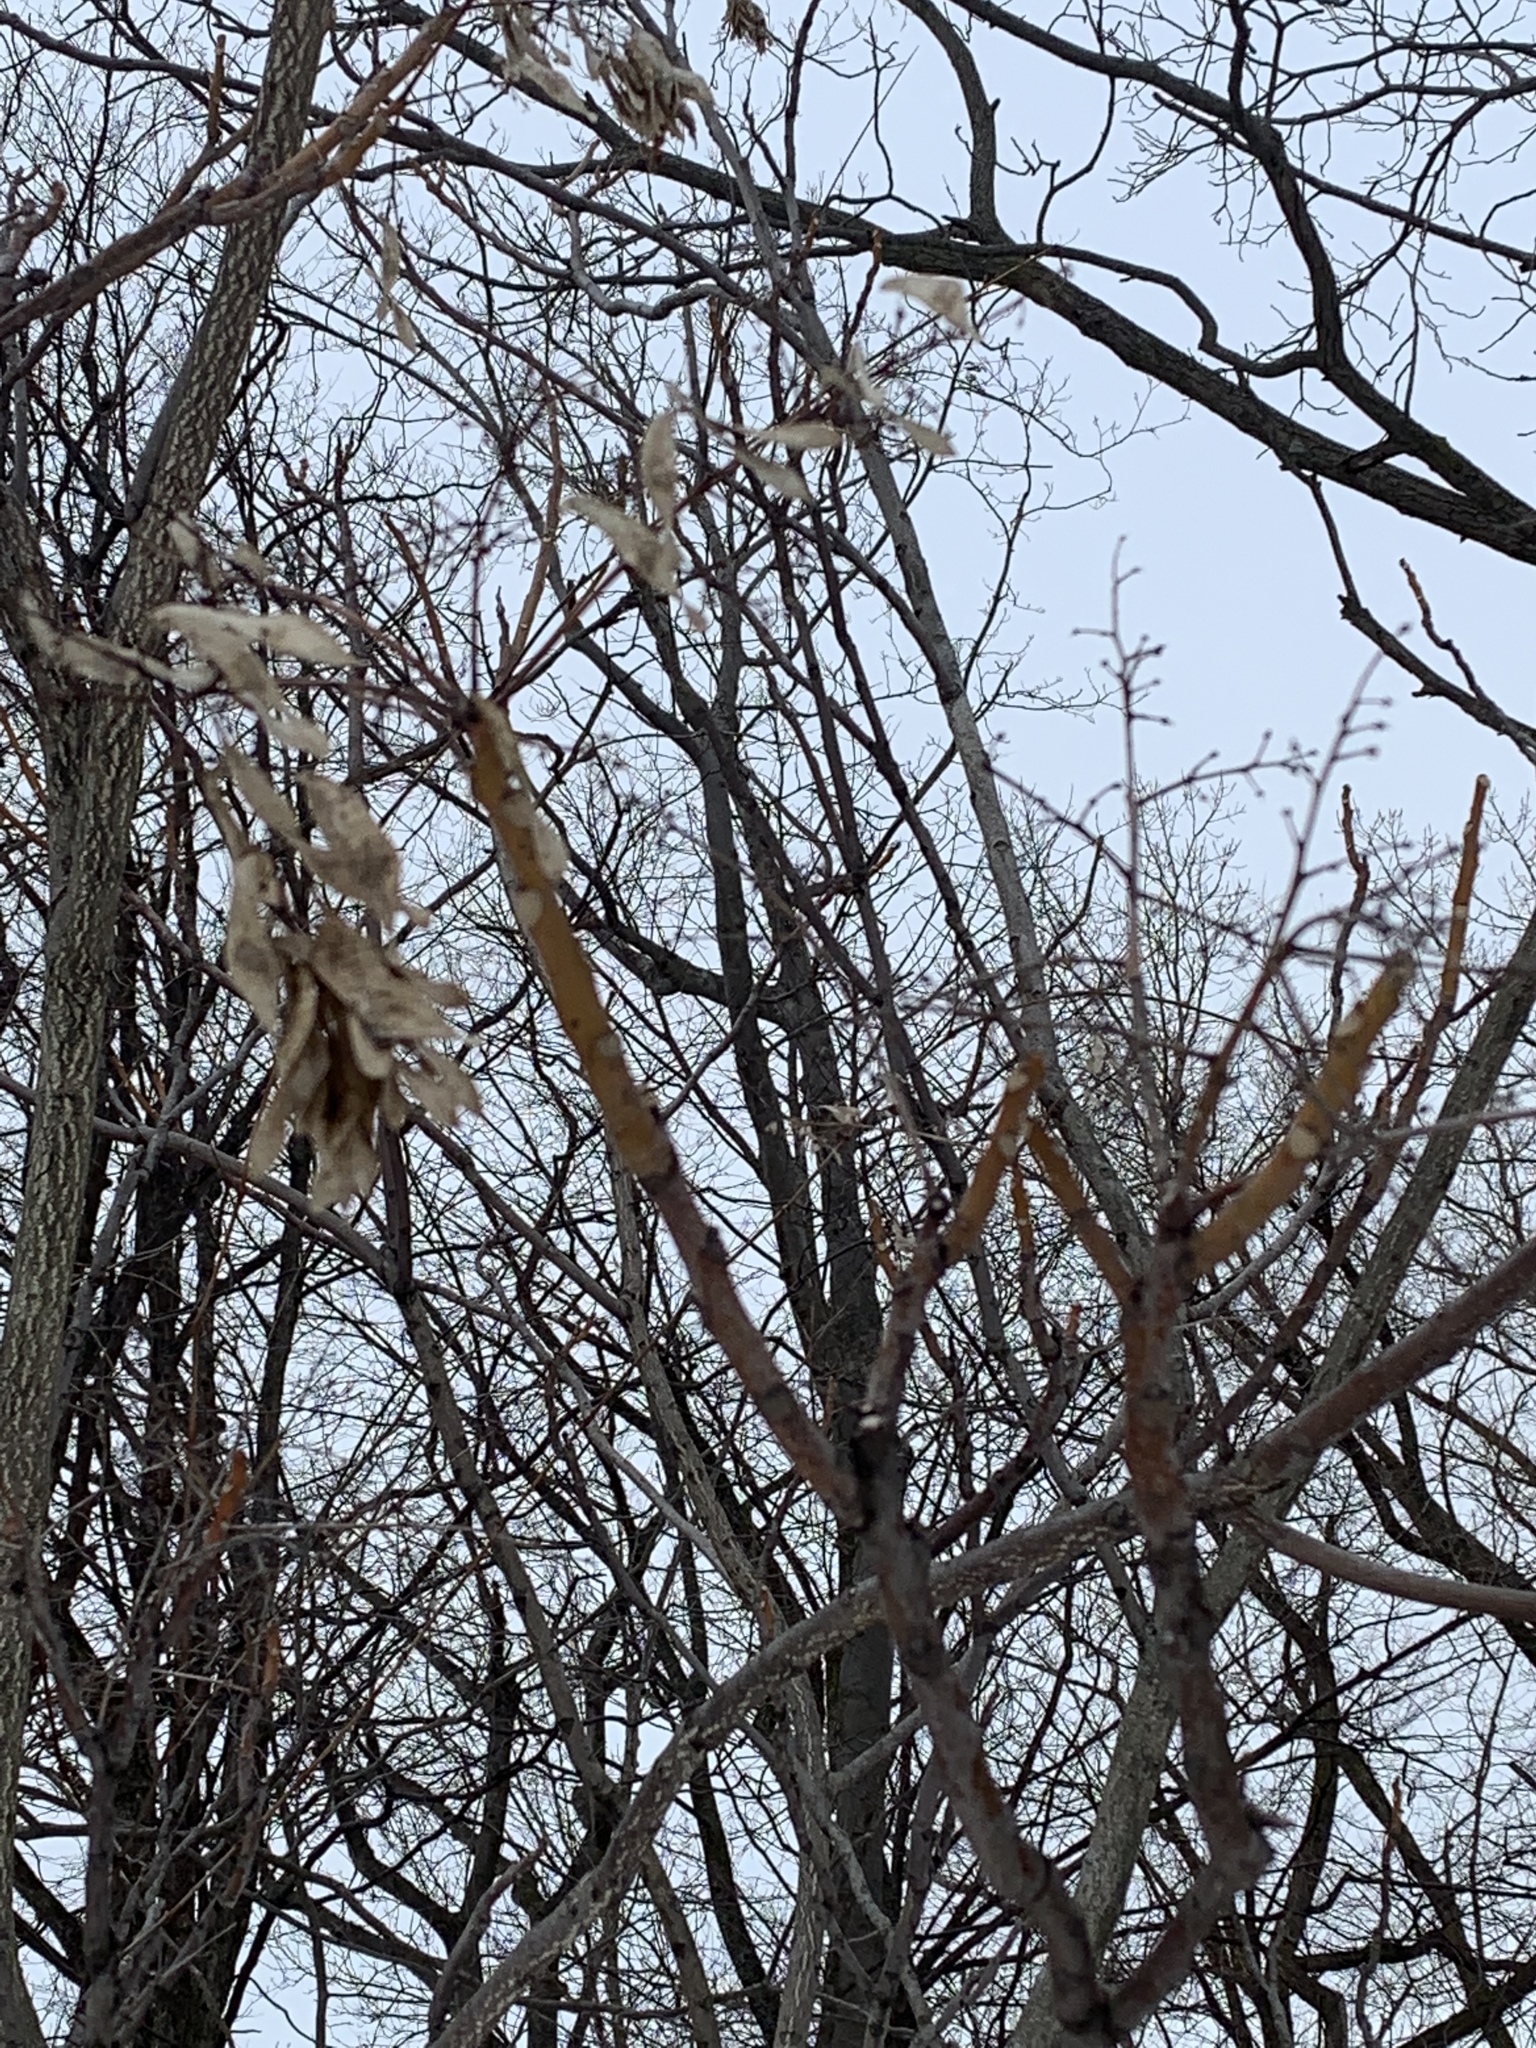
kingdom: Plantae
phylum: Tracheophyta
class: Magnoliopsida
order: Sapindales
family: Simaroubaceae
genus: Ailanthus
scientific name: Ailanthus altissima
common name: Tree-of-heaven
